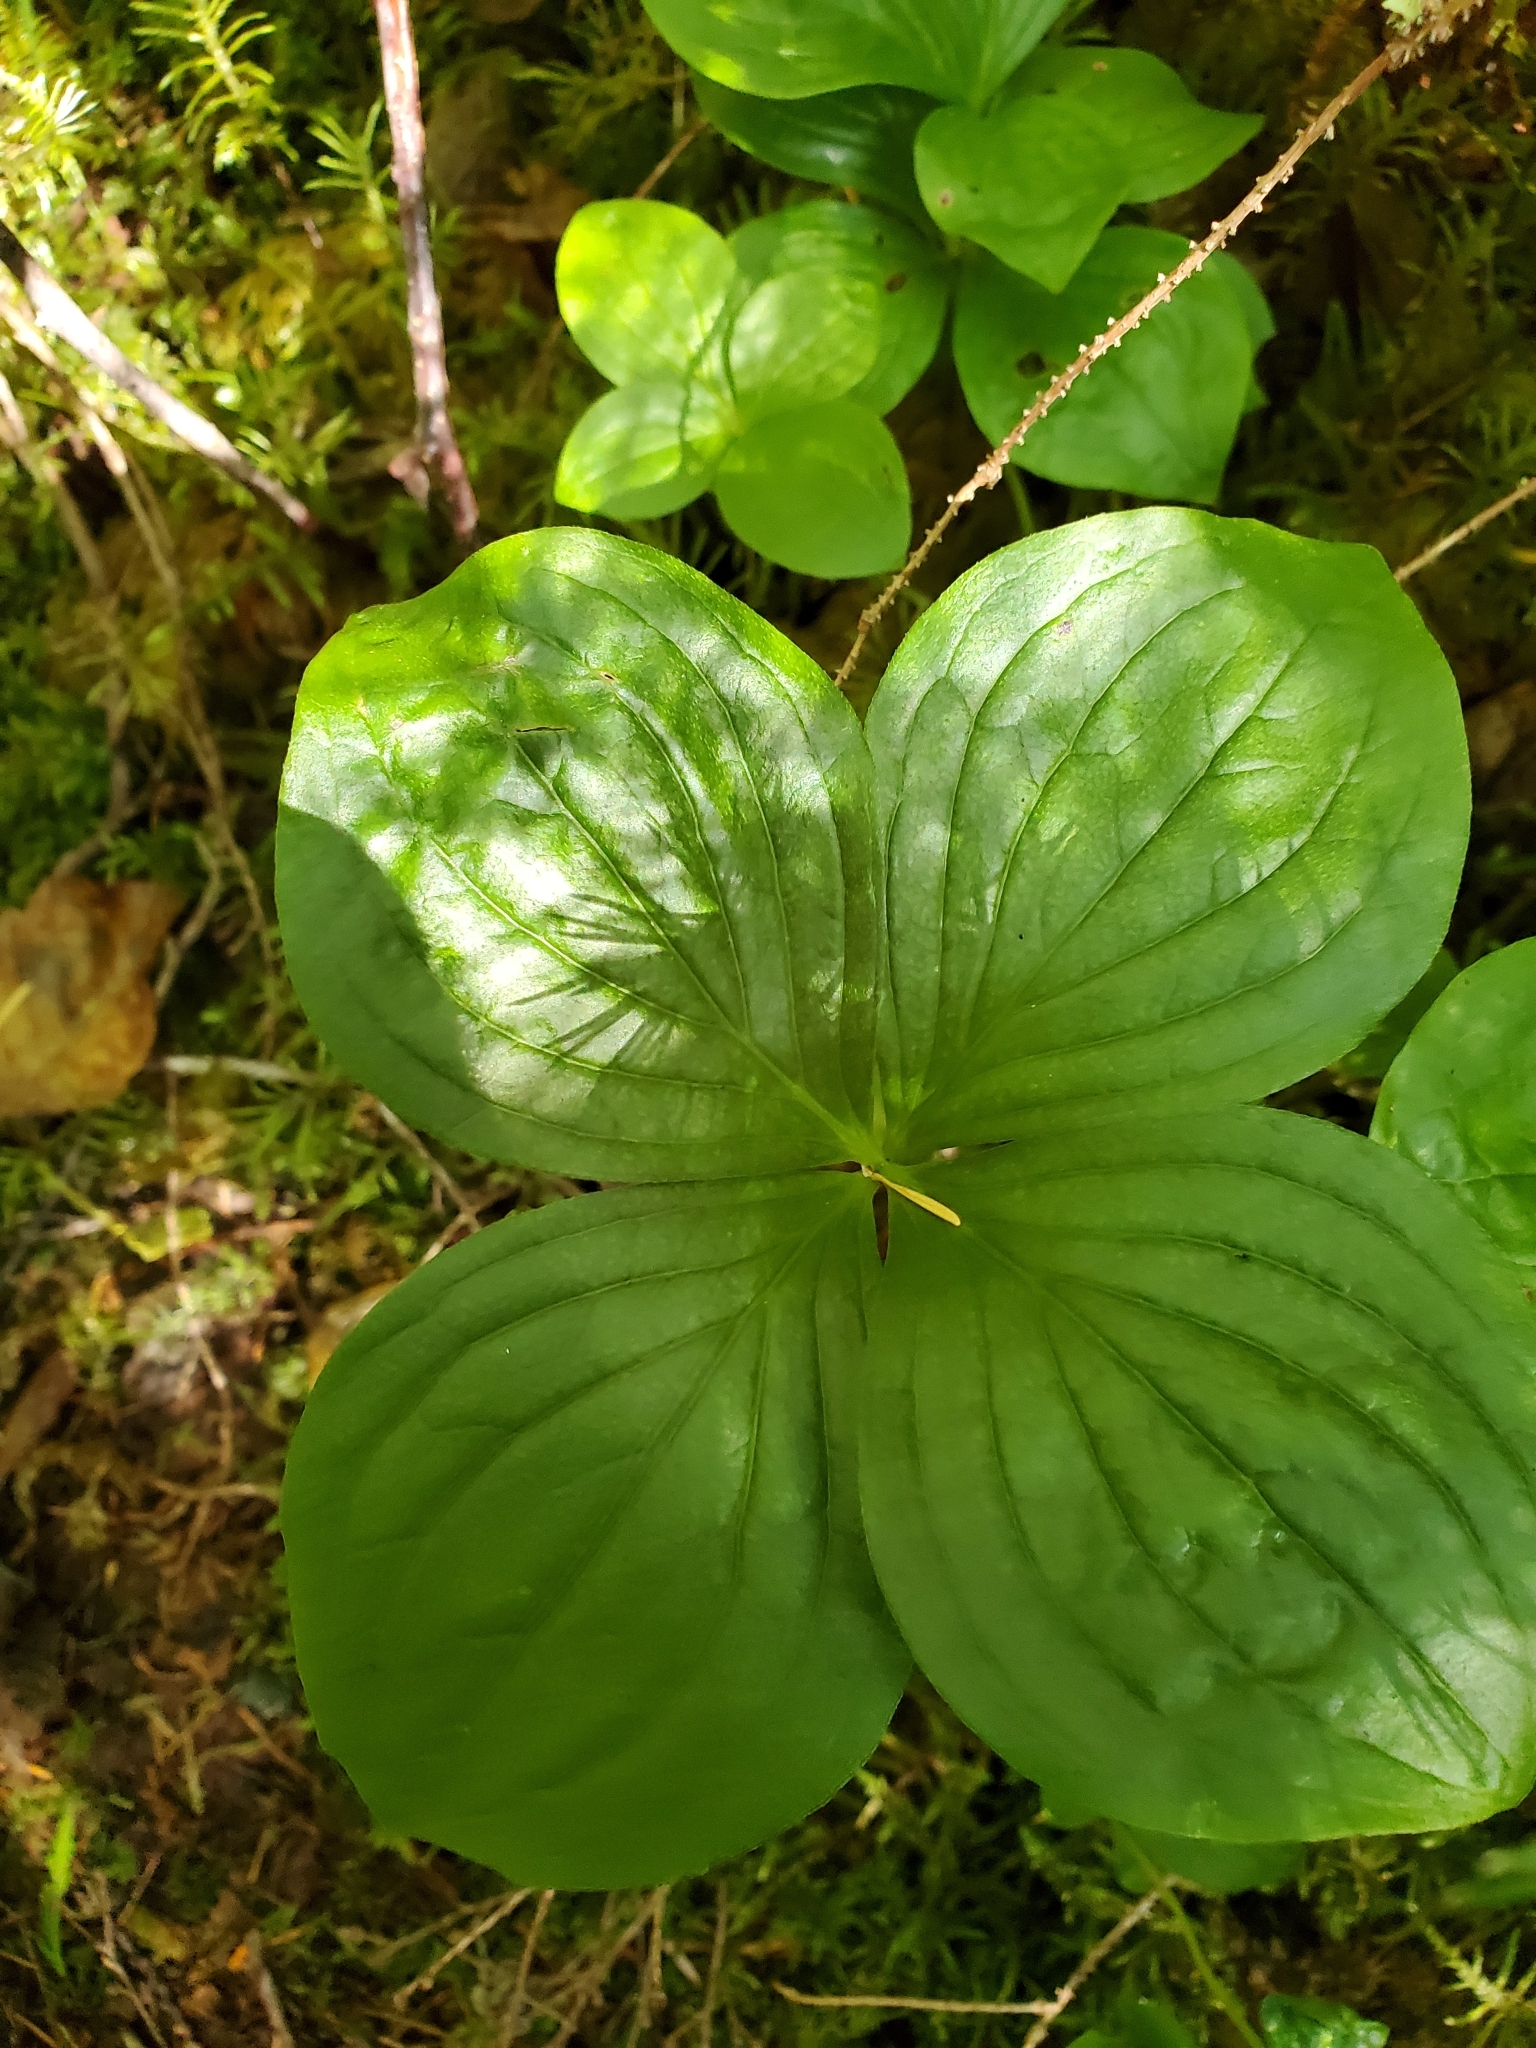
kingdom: Plantae
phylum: Tracheophyta
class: Magnoliopsida
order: Cornales
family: Cornaceae
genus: Cornus
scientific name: Cornus unalaschkensis
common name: Alaska bunchberry
